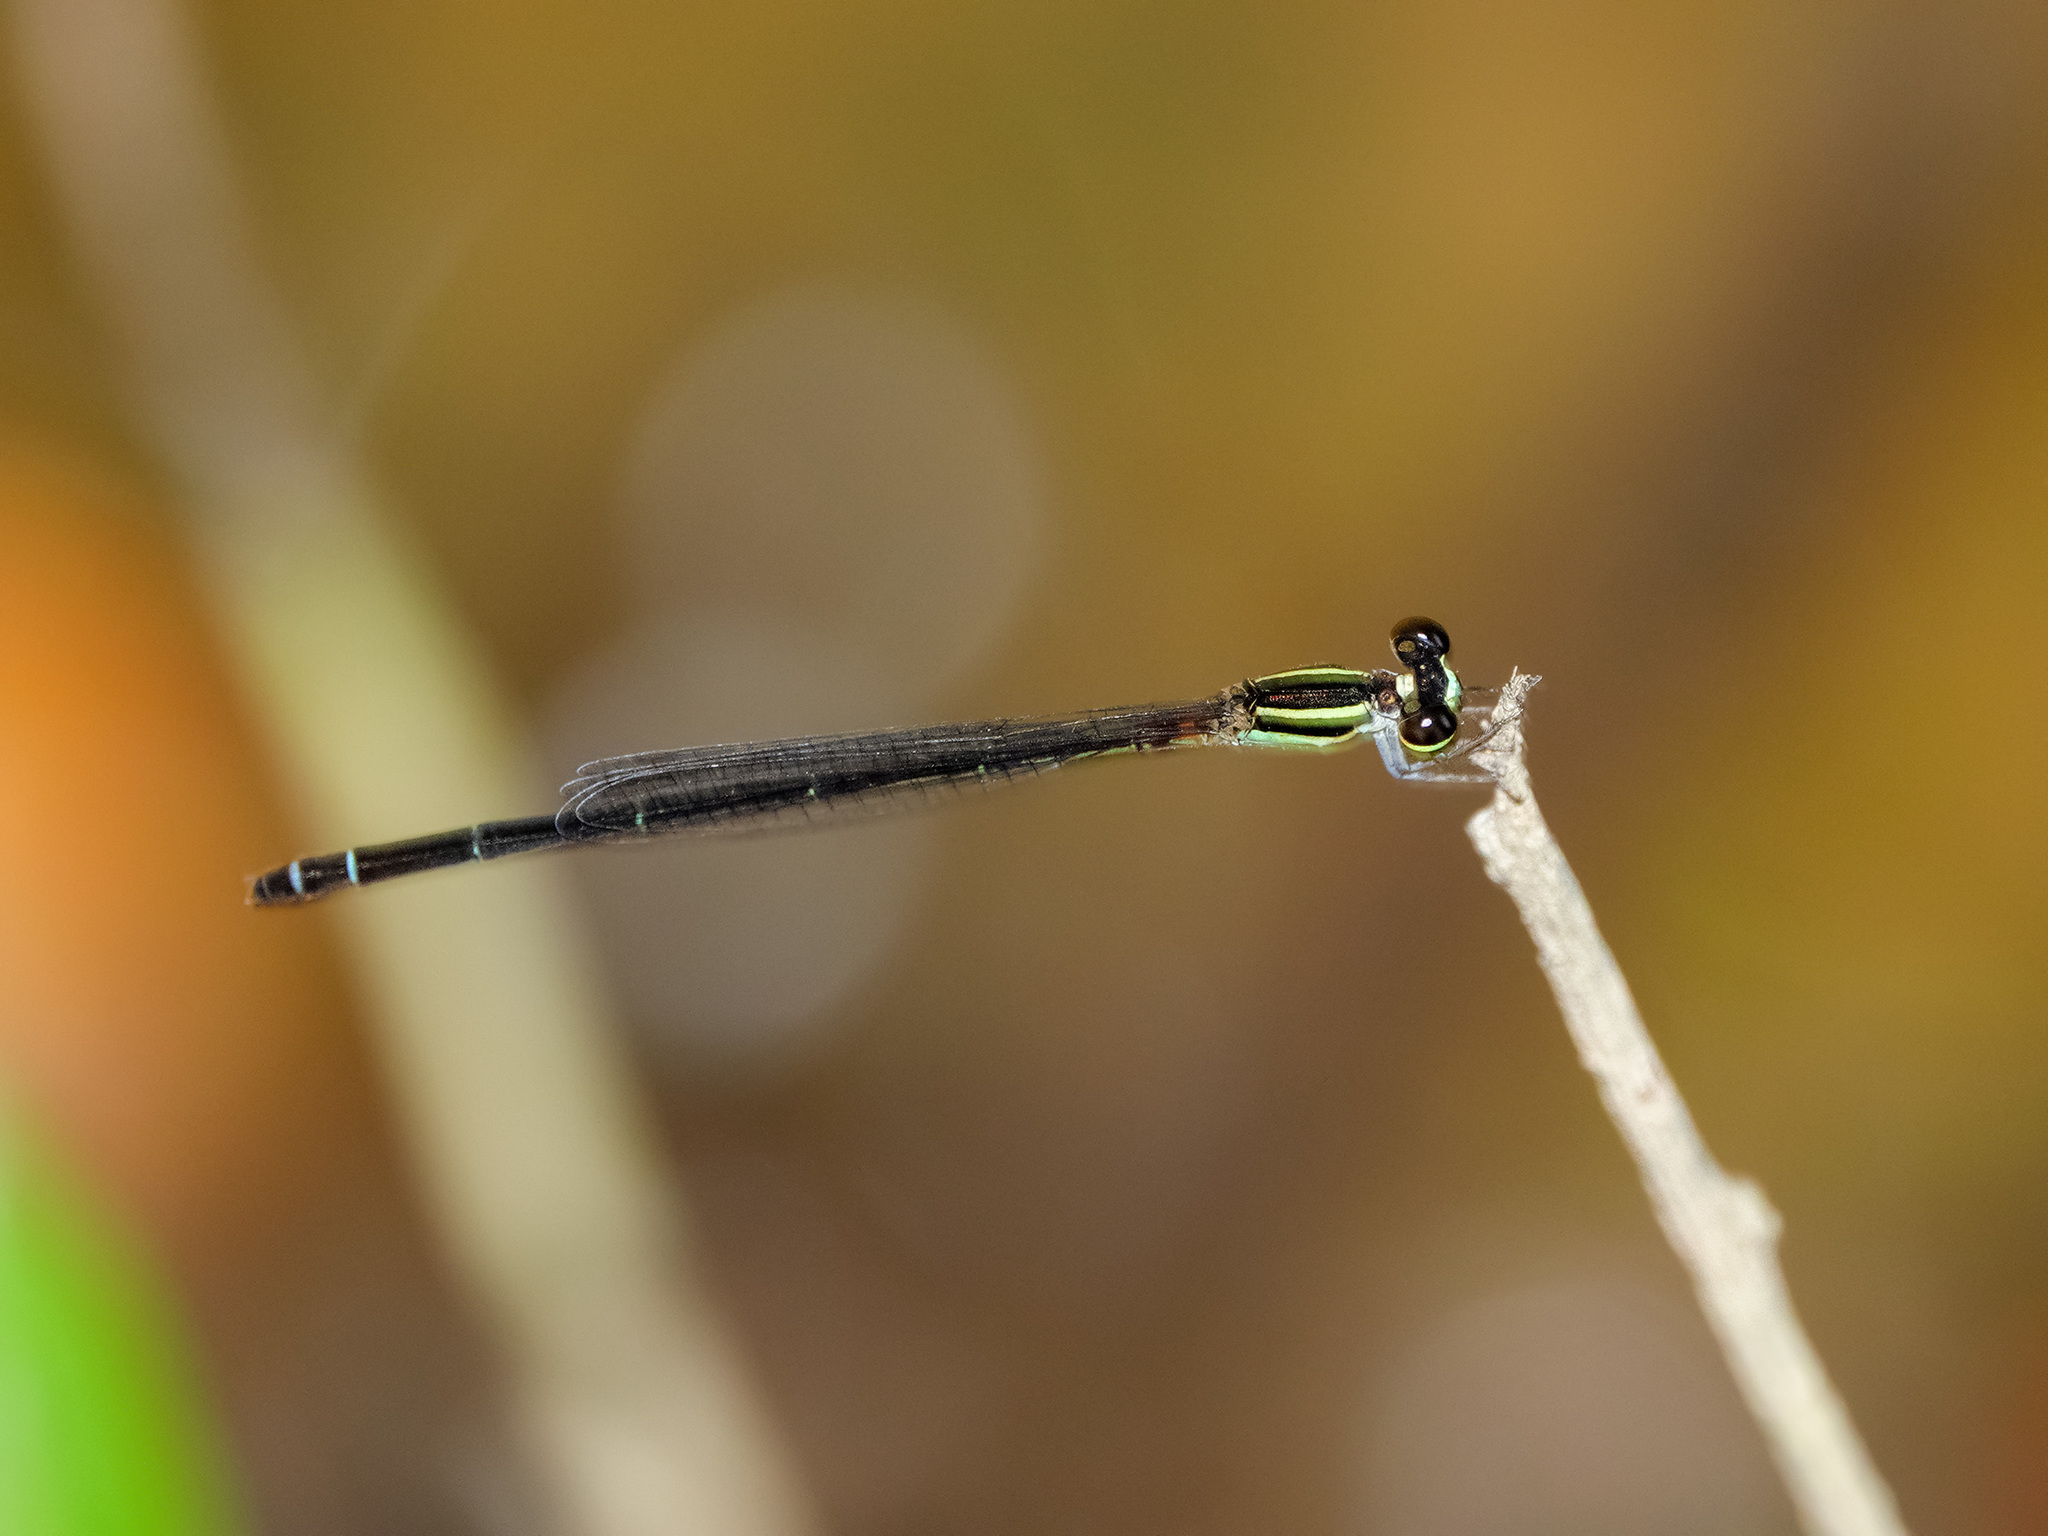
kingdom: Animalia
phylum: Arthropoda
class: Insecta
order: Odonata
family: Coenagrionidae
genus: Argiocnemis
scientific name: Argiocnemis rubescens
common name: Red-tipped shadefly
